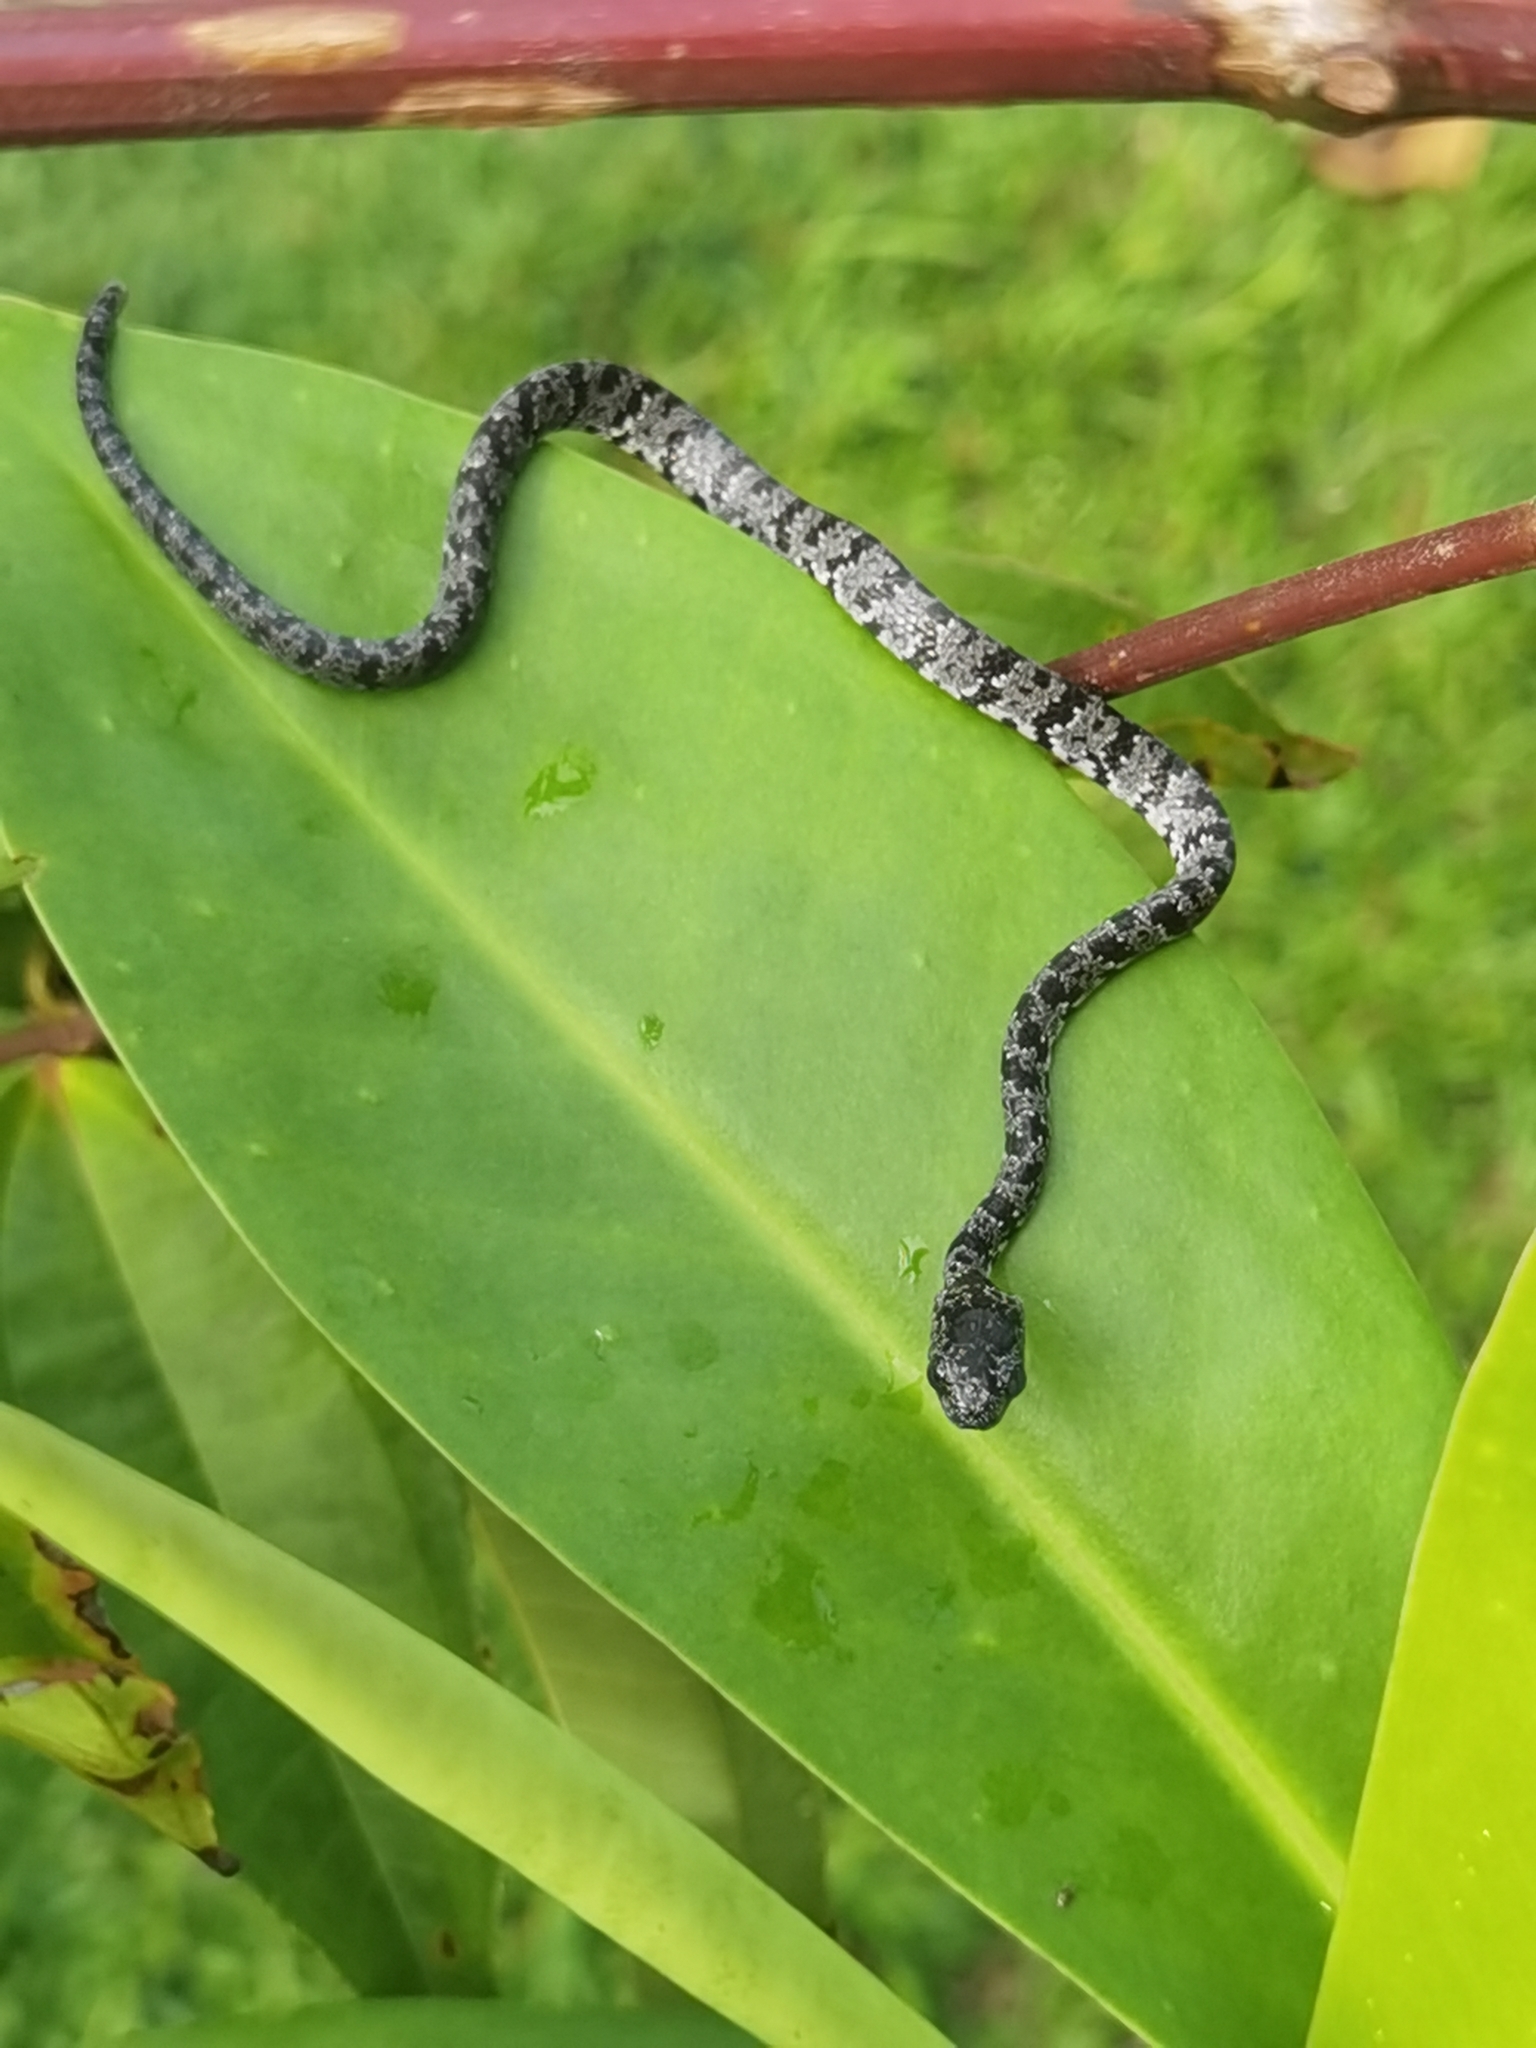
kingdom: Animalia
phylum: Chordata
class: Squamata
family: Colubridae
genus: Sibon
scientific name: Sibon nebulatus
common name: Cloudy snail-eating snake
